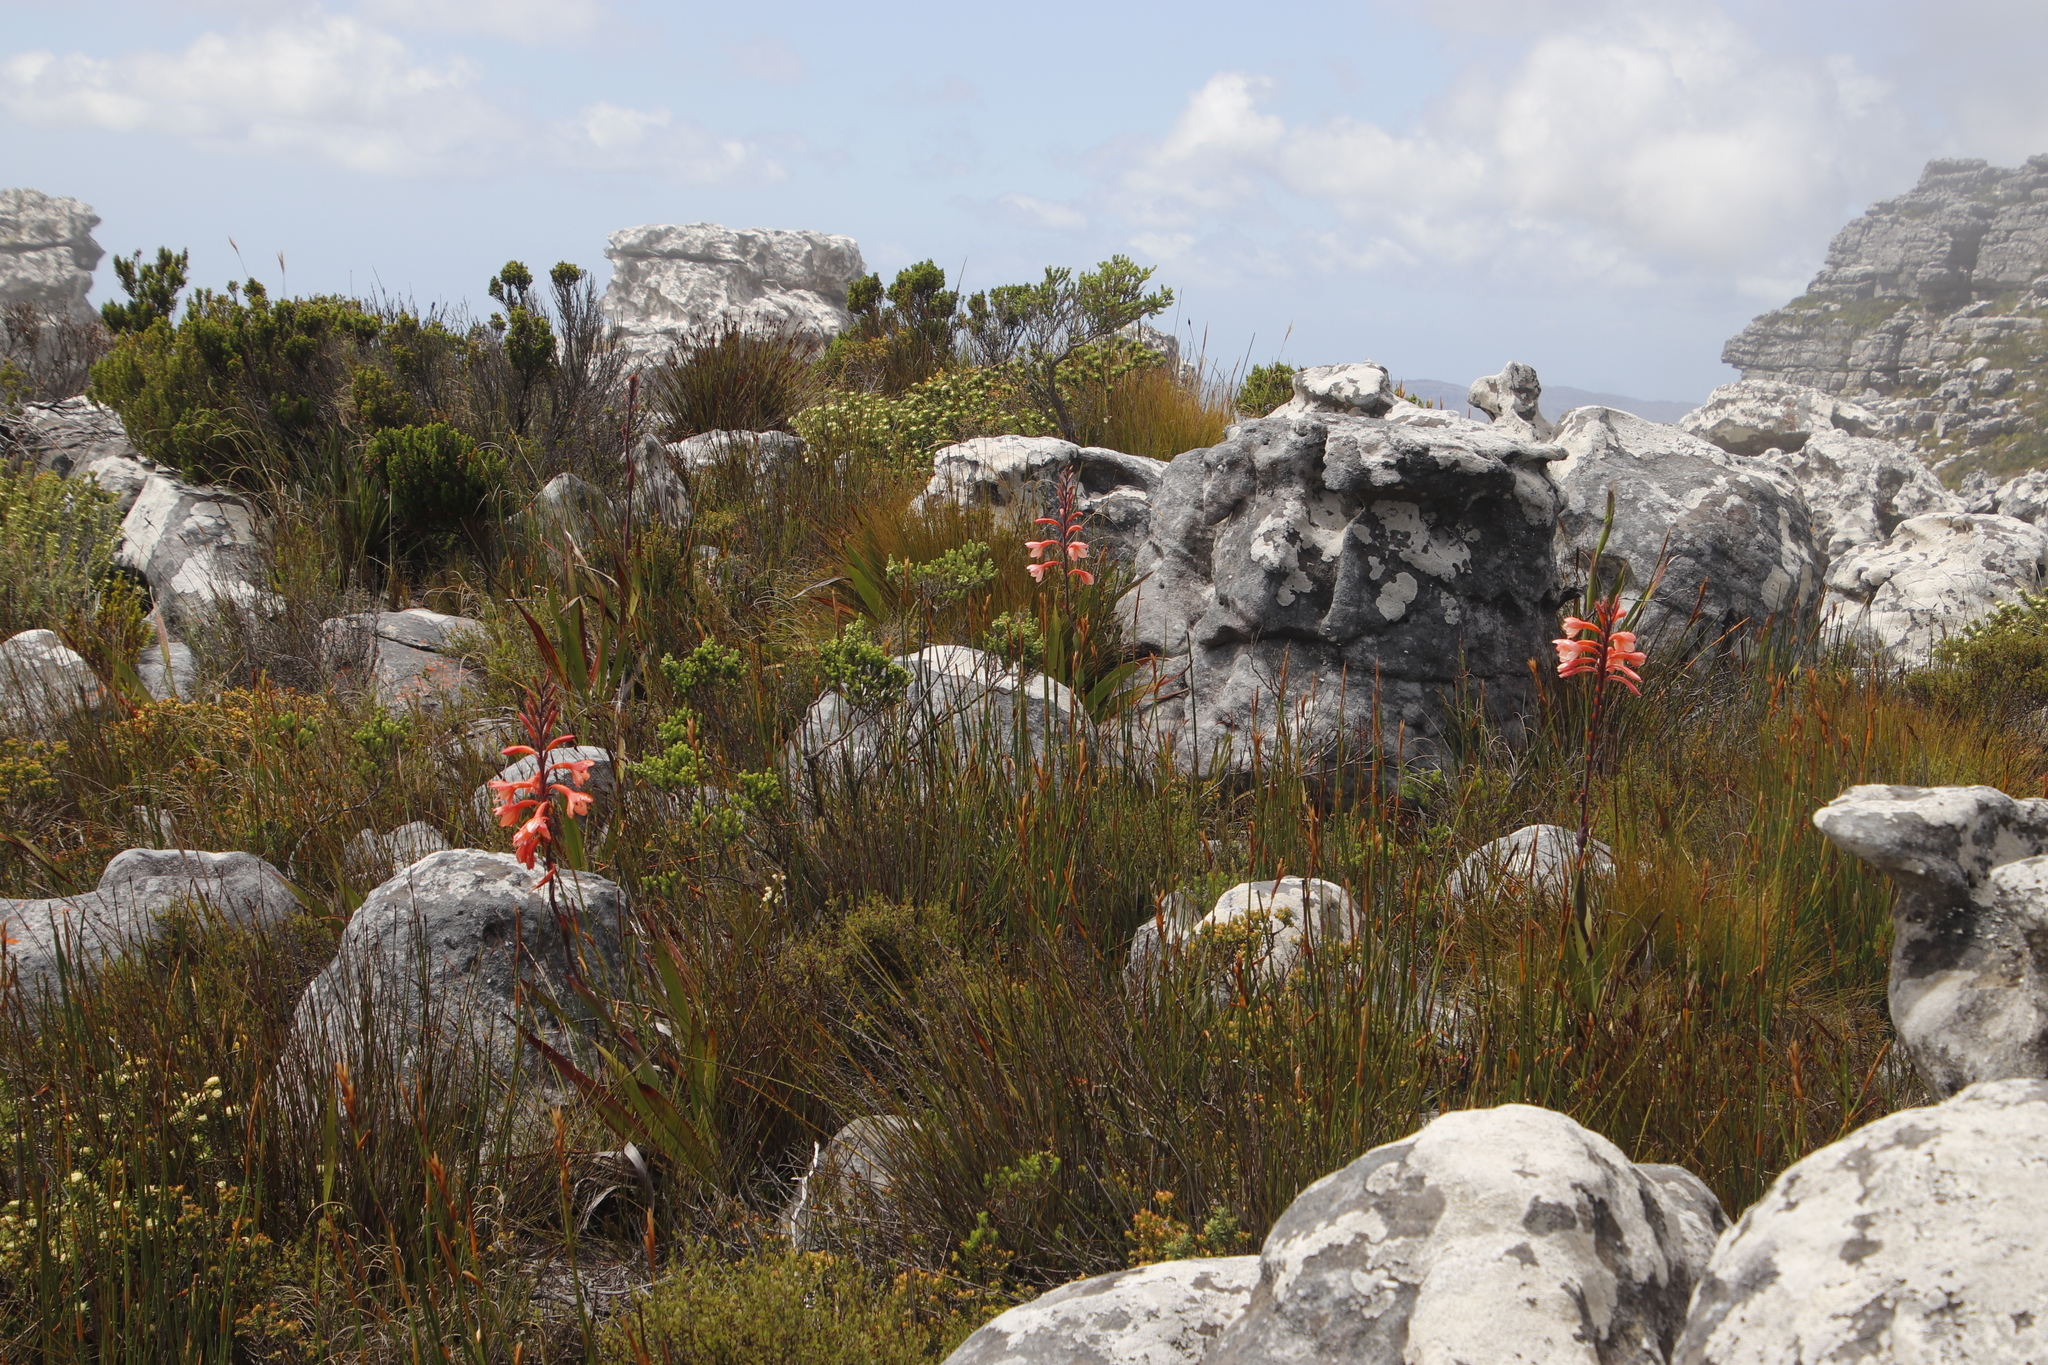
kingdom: Plantae
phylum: Tracheophyta
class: Liliopsida
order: Asparagales
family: Iridaceae
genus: Watsonia
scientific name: Watsonia tabularis
